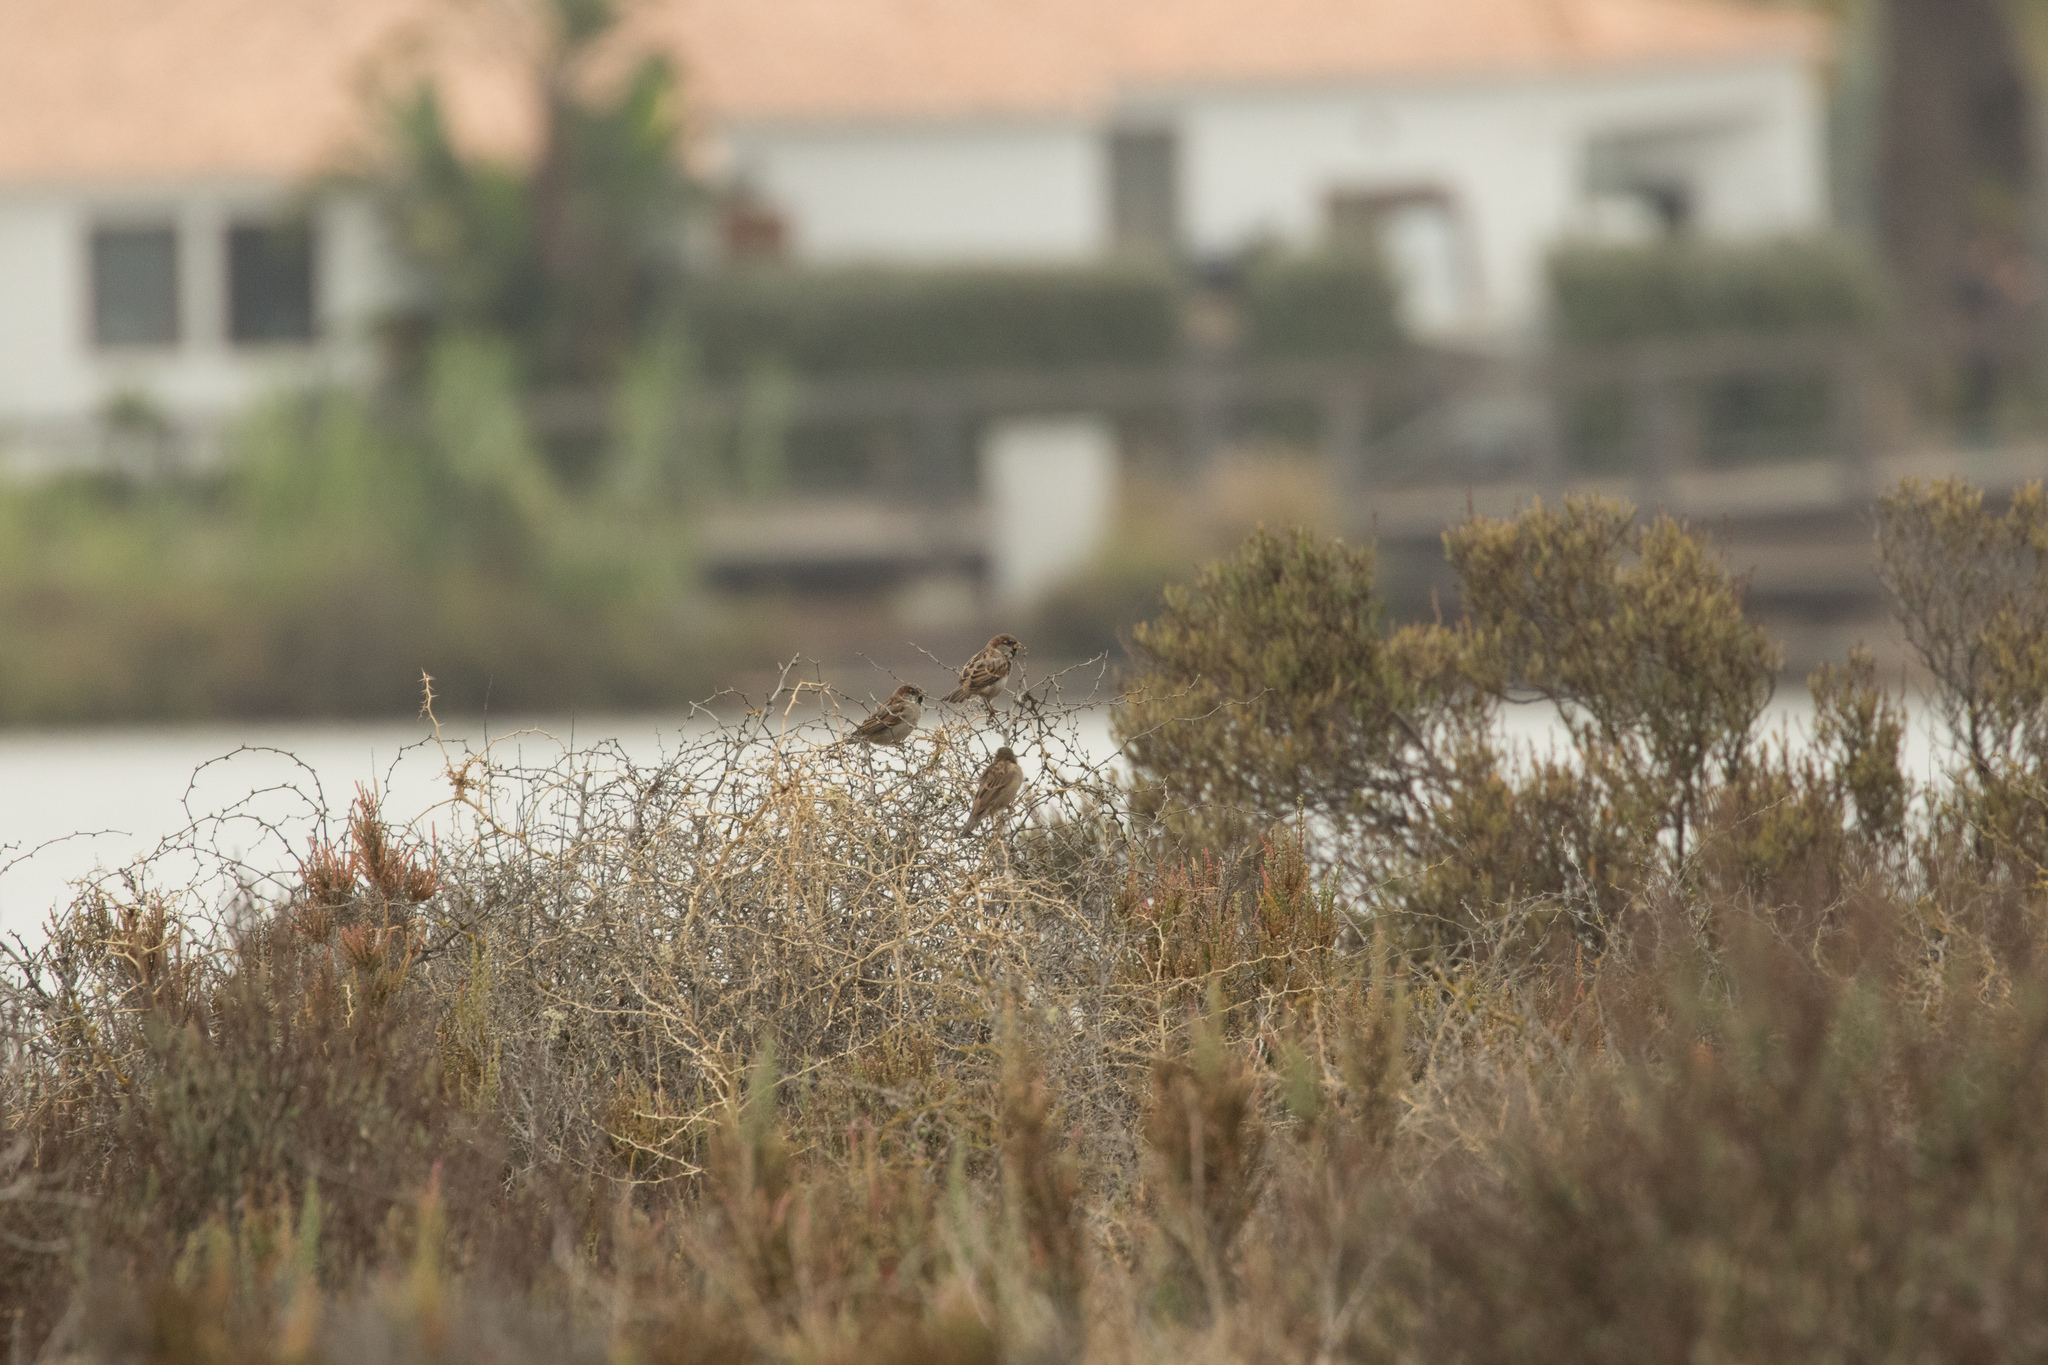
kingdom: Animalia
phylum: Chordata
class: Aves
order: Passeriformes
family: Passeridae
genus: Passer
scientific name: Passer domesticus
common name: House sparrow
